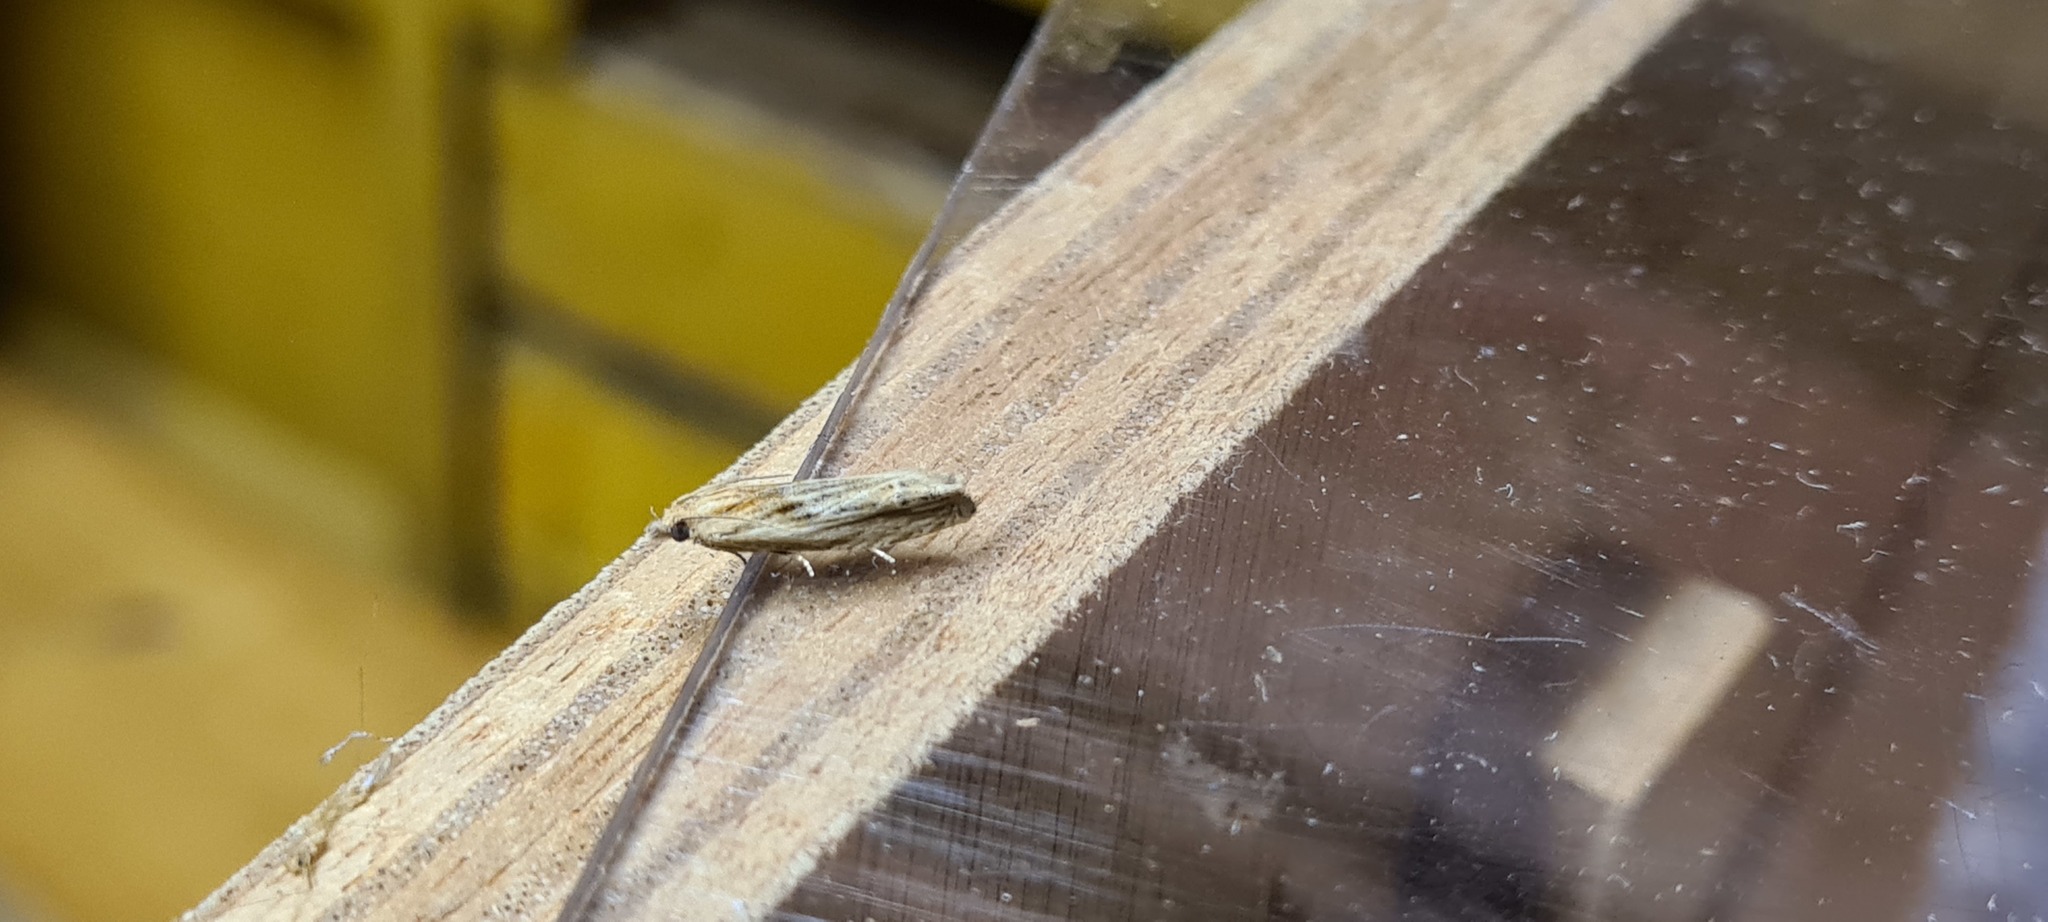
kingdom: Animalia
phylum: Arthropoda
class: Insecta
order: Lepidoptera
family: Tortricidae
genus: Eucosma
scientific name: Eucosma cana
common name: Hoary belle
